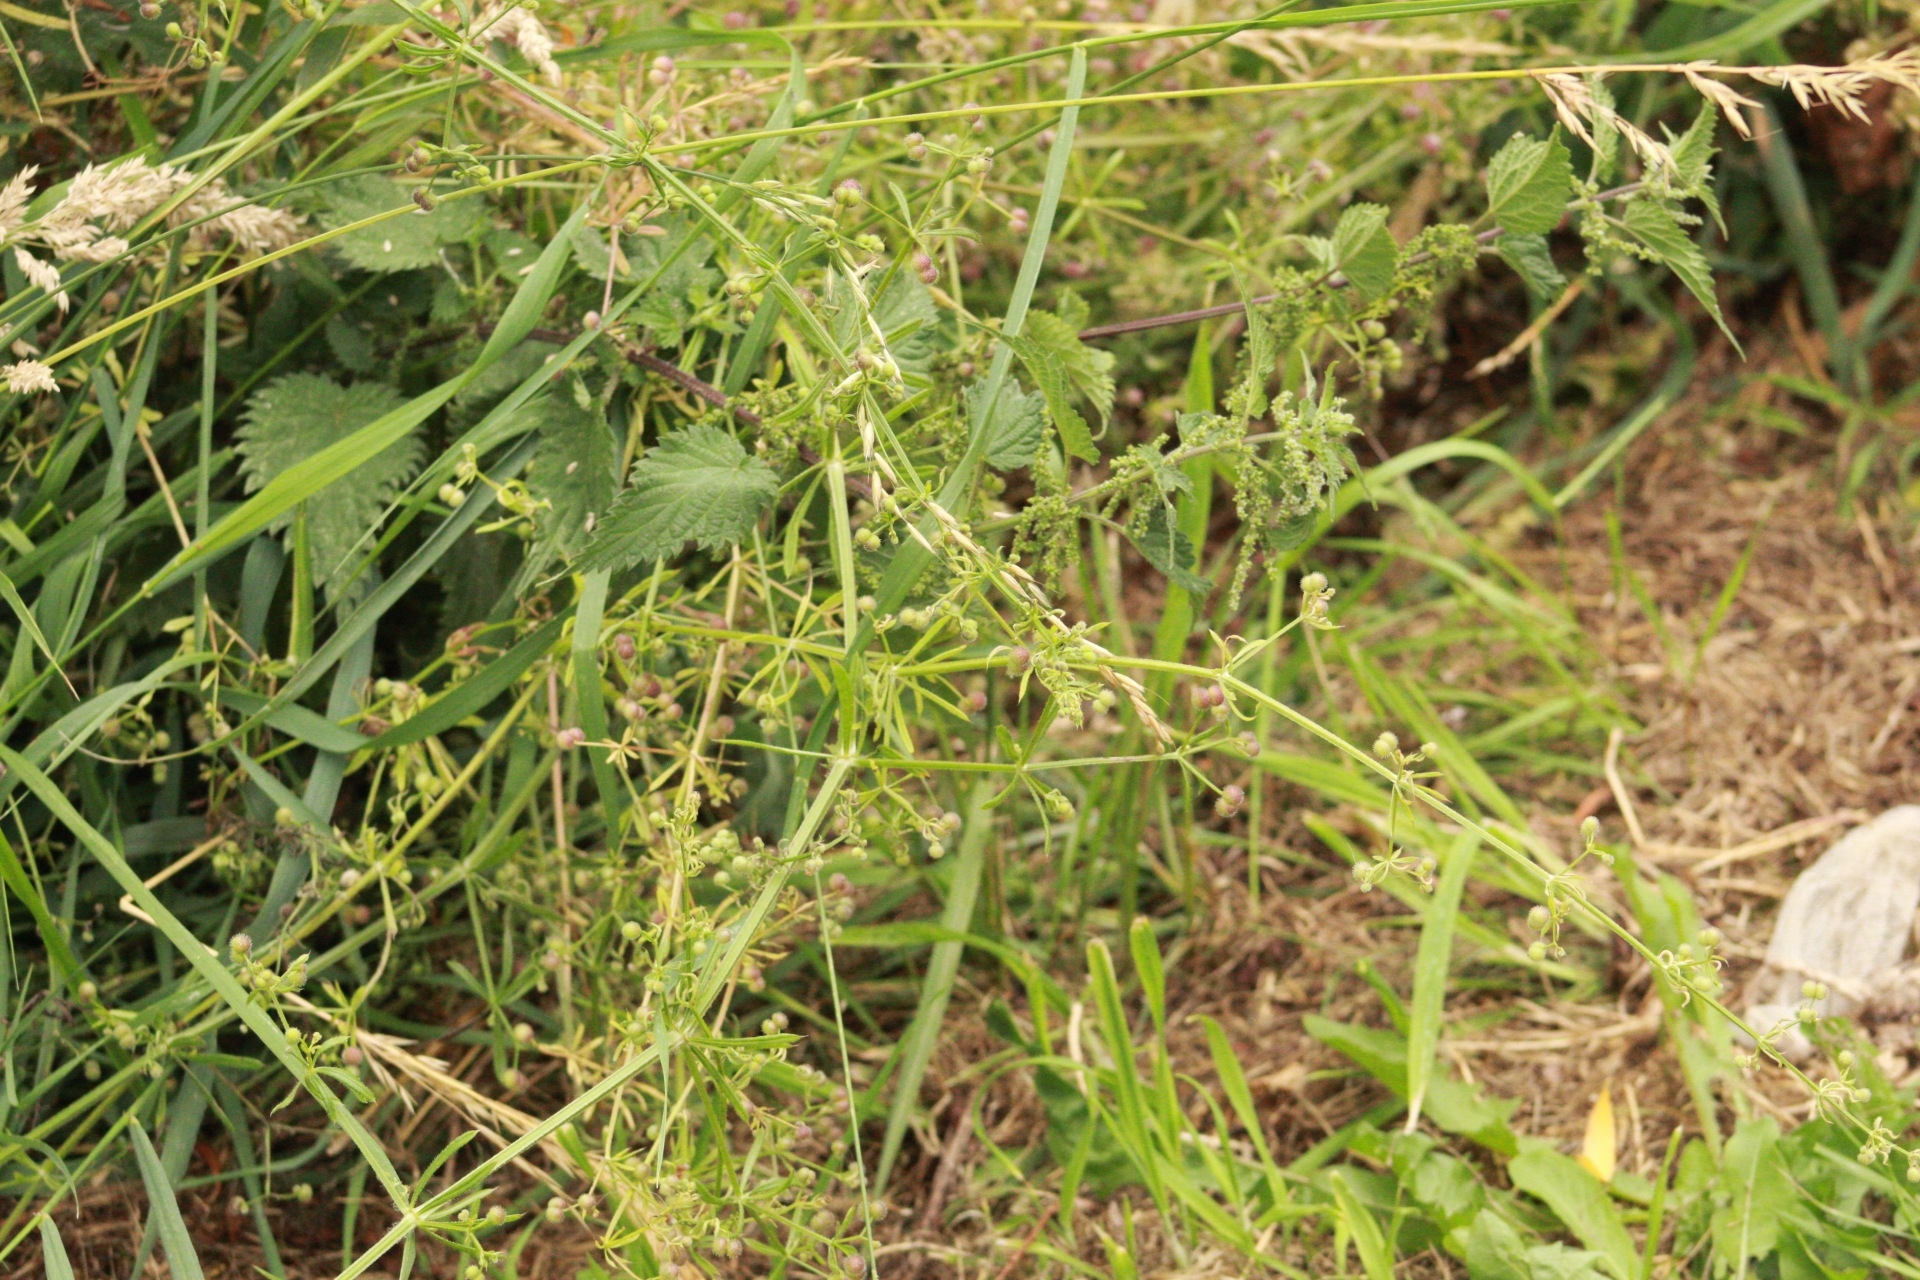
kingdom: Plantae
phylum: Tracheophyta
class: Magnoliopsida
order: Gentianales
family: Rubiaceae
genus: Galium
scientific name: Galium aparine
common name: Cleavers
